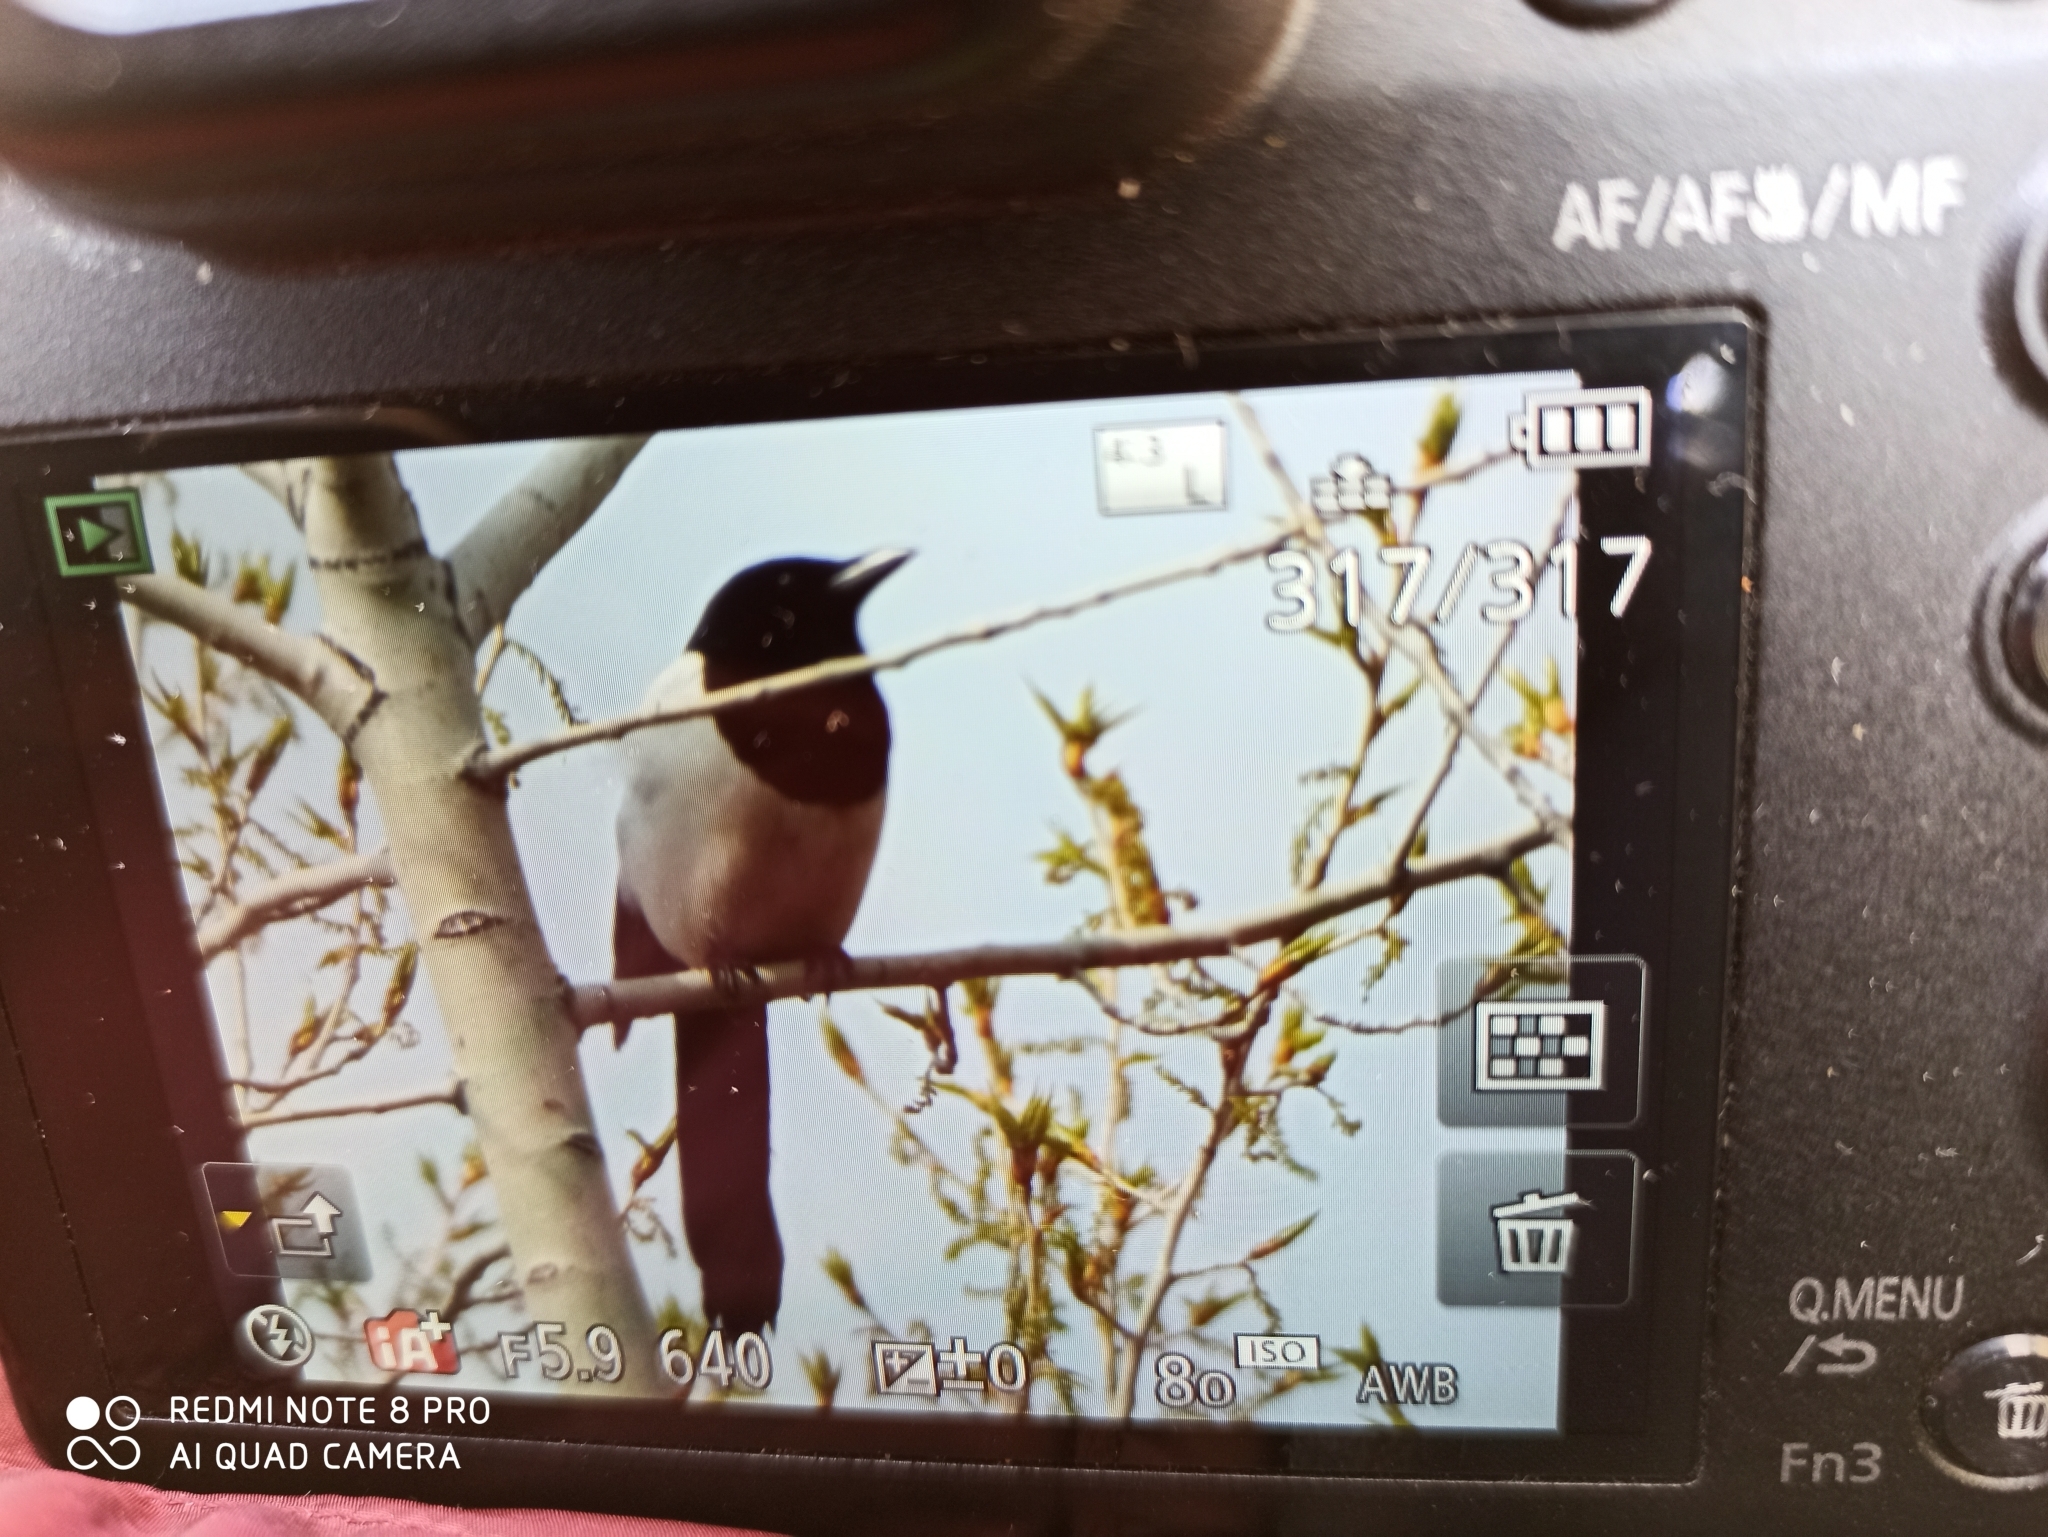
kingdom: Animalia
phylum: Chordata
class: Aves
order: Passeriformes
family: Corvidae
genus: Pica
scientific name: Pica pica
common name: Eurasian magpie
